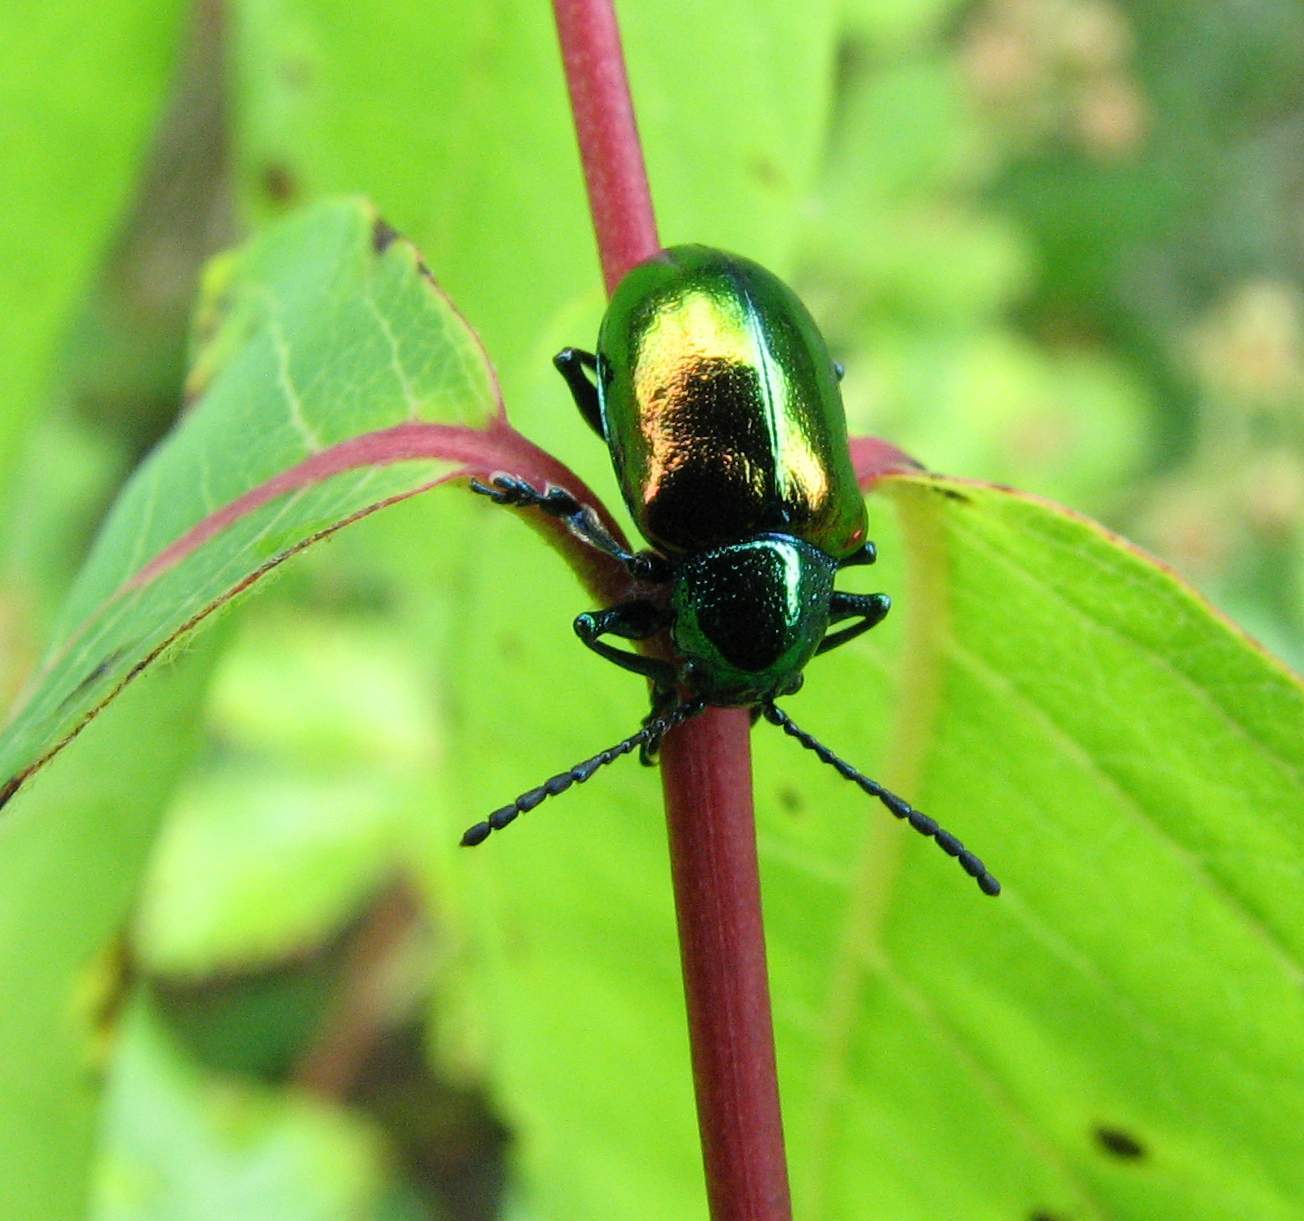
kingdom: Animalia
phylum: Arthropoda
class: Insecta
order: Coleoptera
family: Chrysomelidae
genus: Chrysochus
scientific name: Chrysochus auratus
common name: Dogbane leaf beetle
